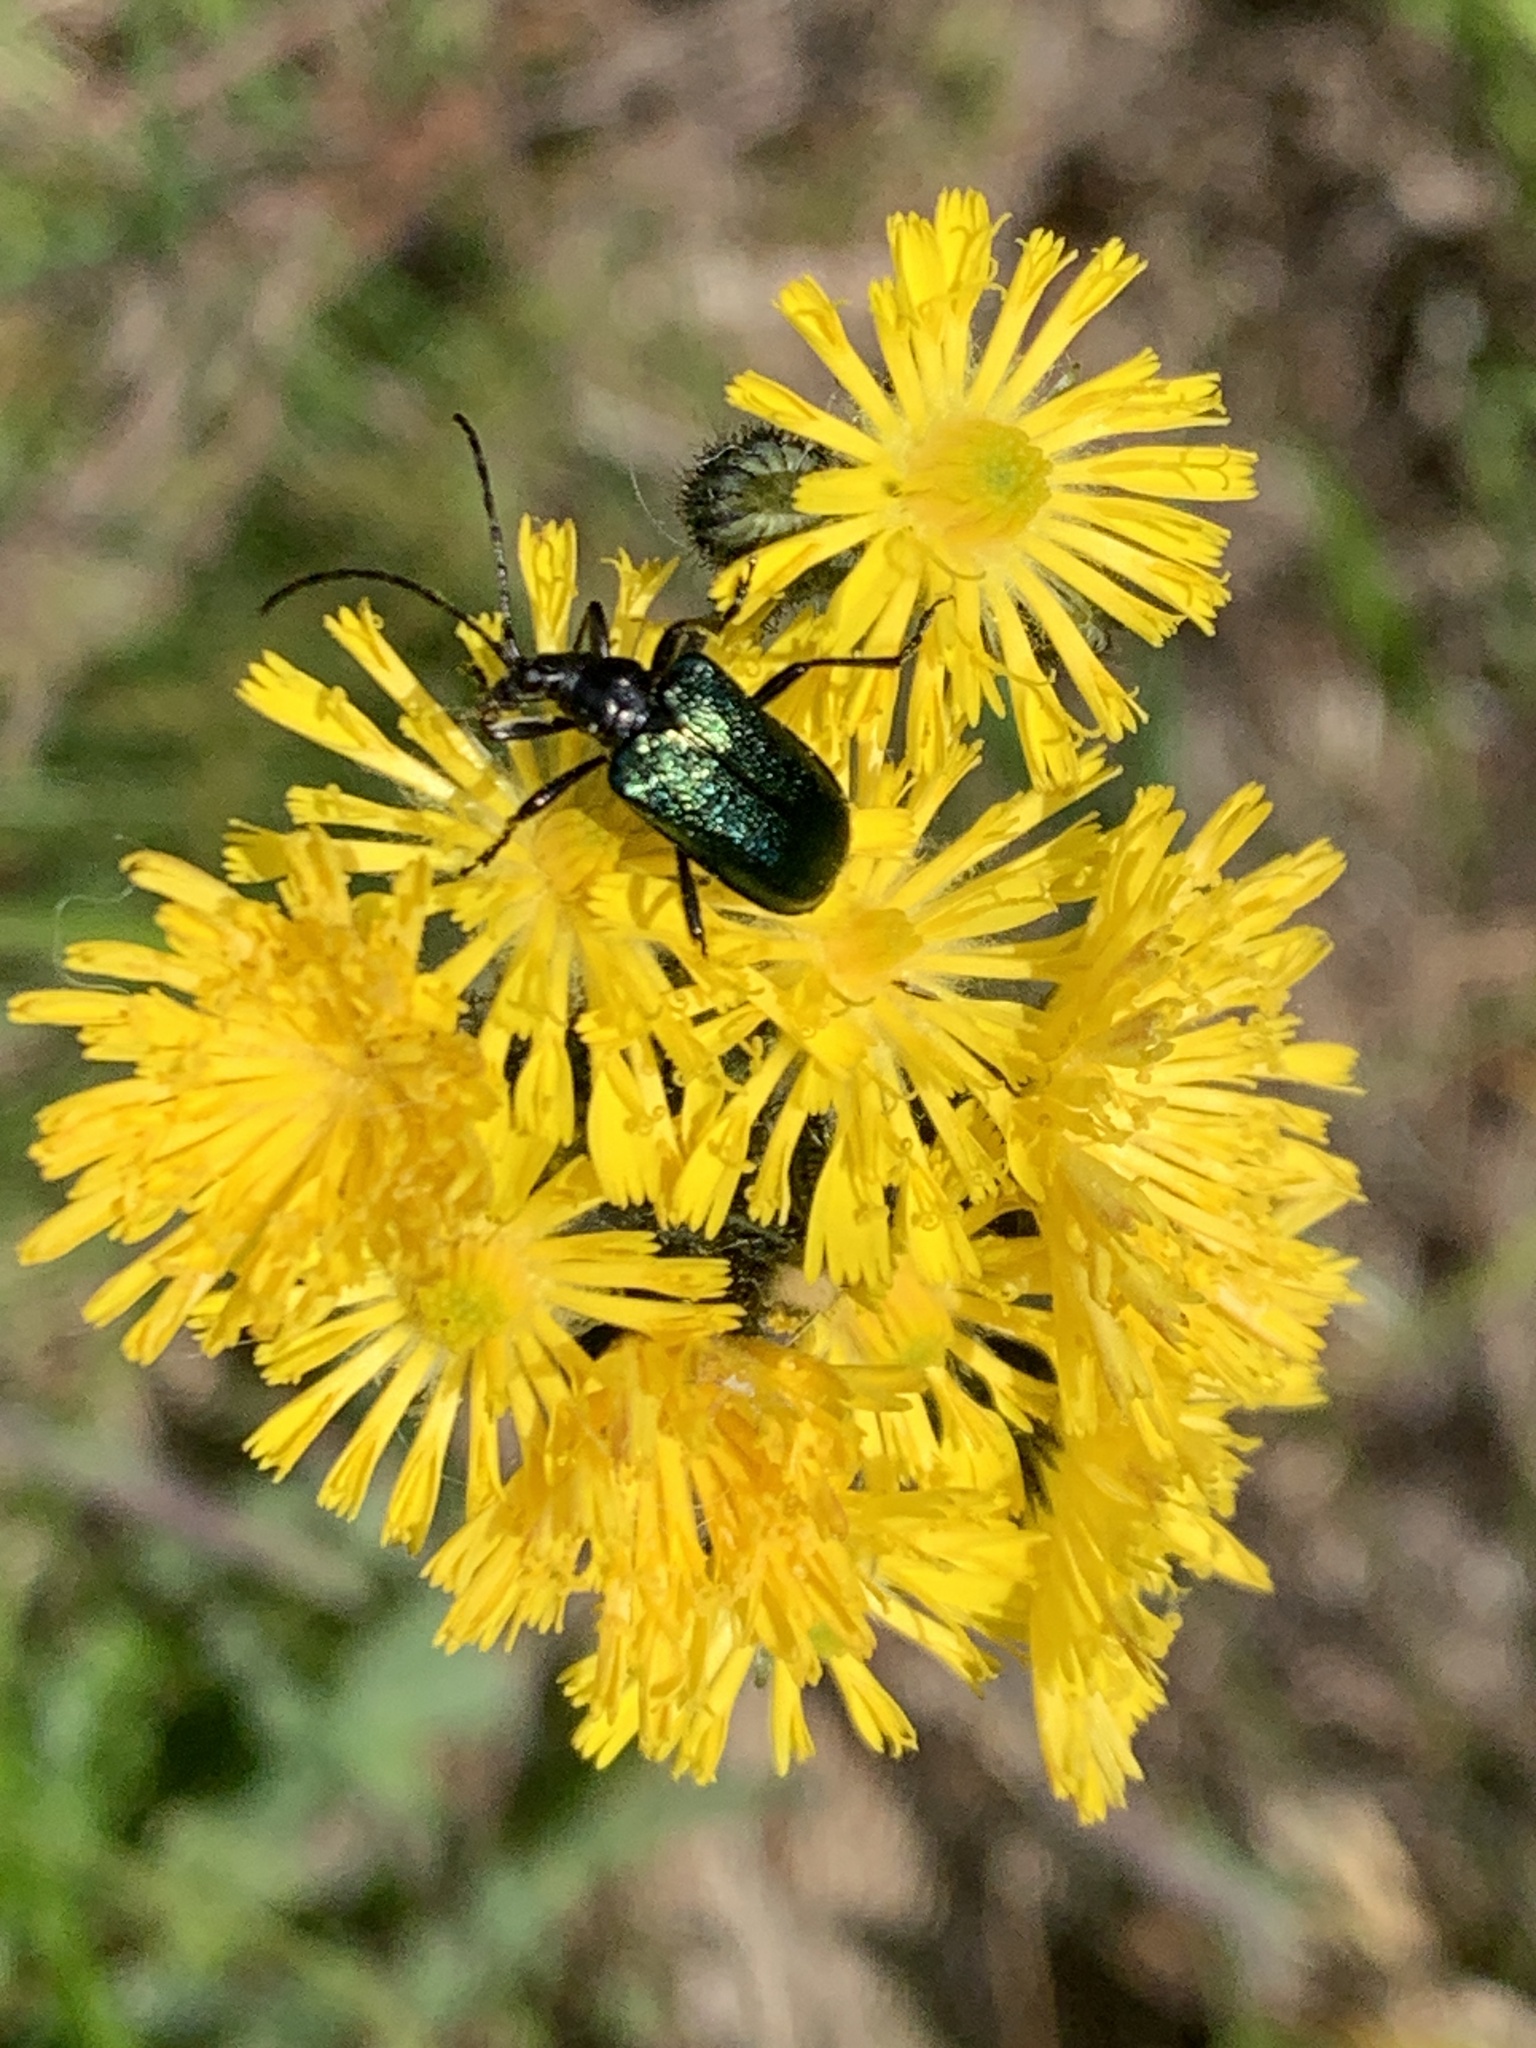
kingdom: Animalia
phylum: Arthropoda
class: Insecta
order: Coleoptera
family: Cerambycidae
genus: Gaurotes
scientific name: Gaurotes virginea
